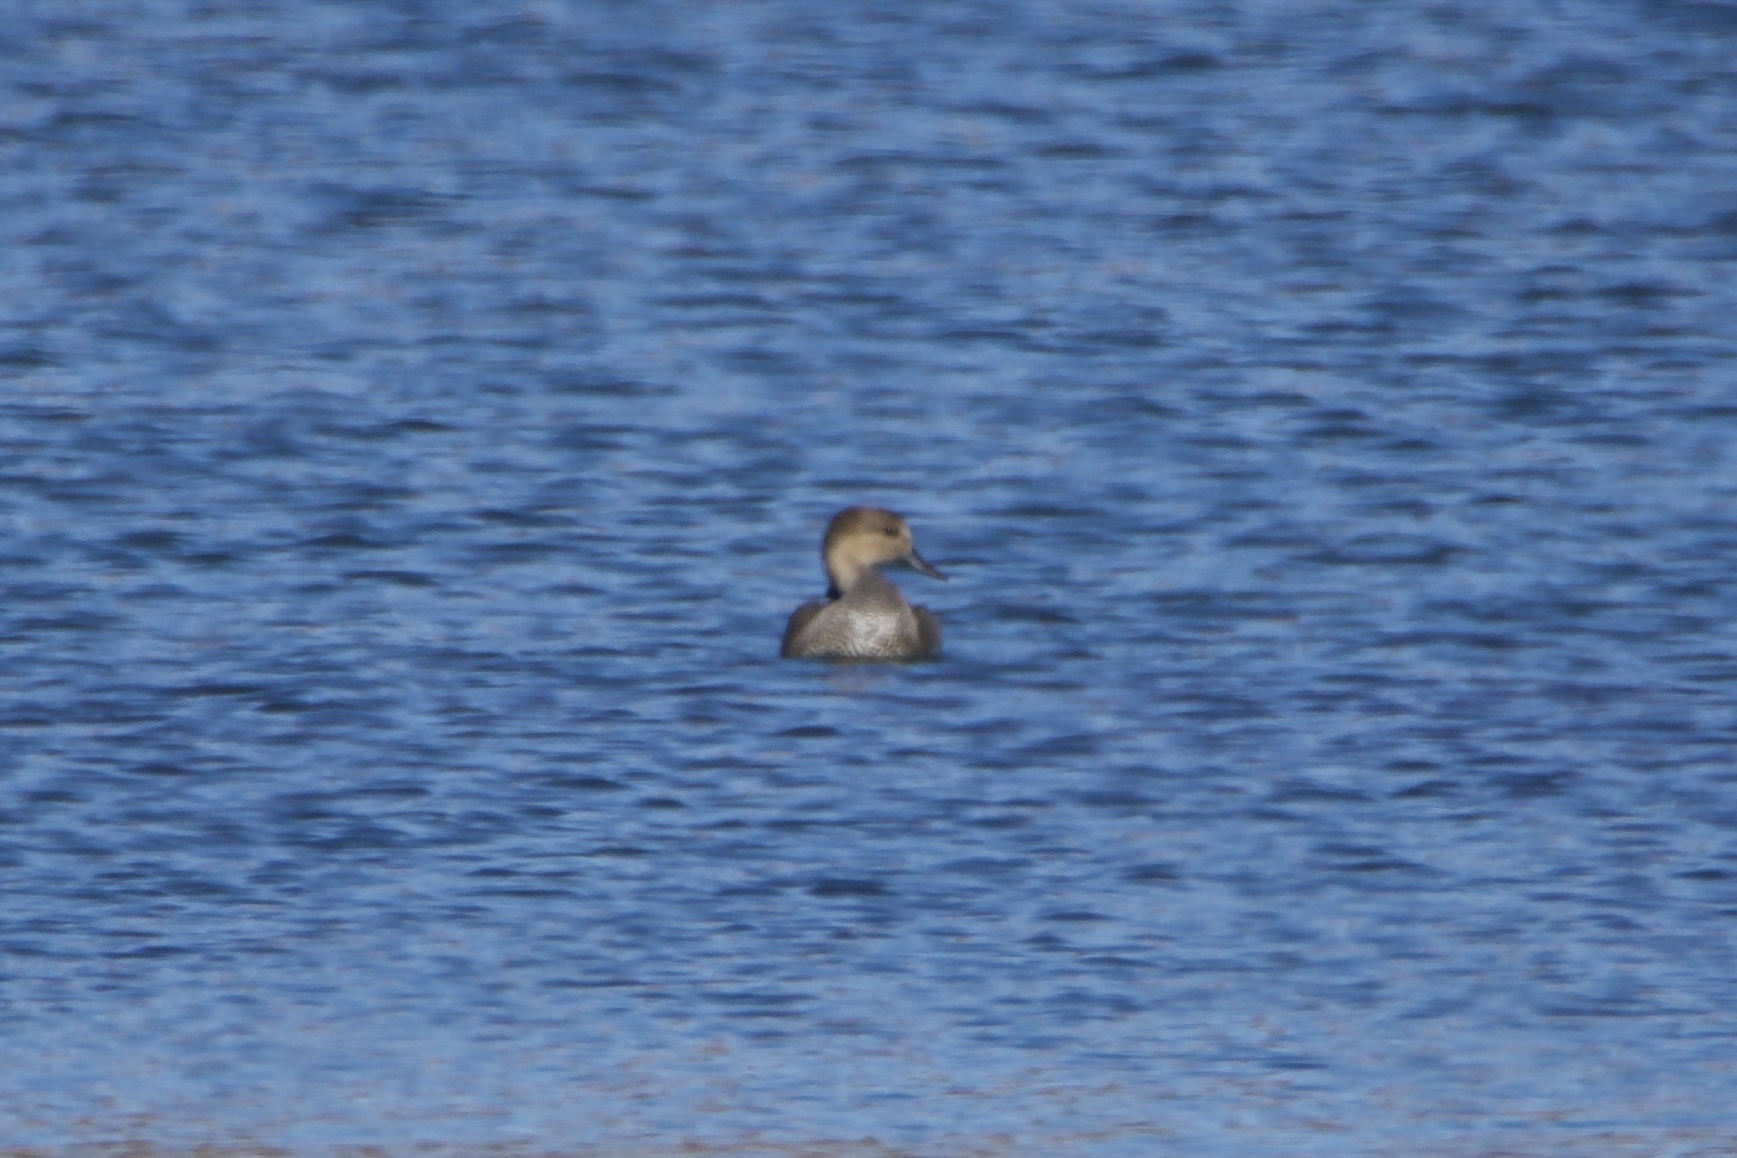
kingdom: Animalia
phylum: Chordata
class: Aves
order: Anseriformes
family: Anatidae
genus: Mareca
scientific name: Mareca strepera
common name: Gadwall
